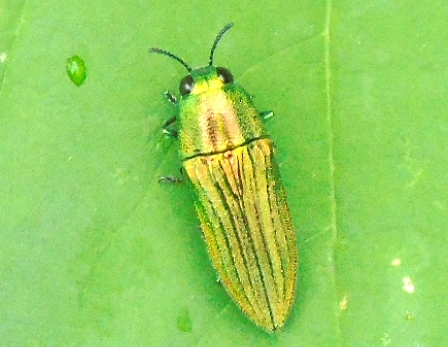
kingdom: Animalia
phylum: Arthropoda
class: Insecta
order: Coleoptera
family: Buprestidae
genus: Agaeocera
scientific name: Agaeocera scintillans
